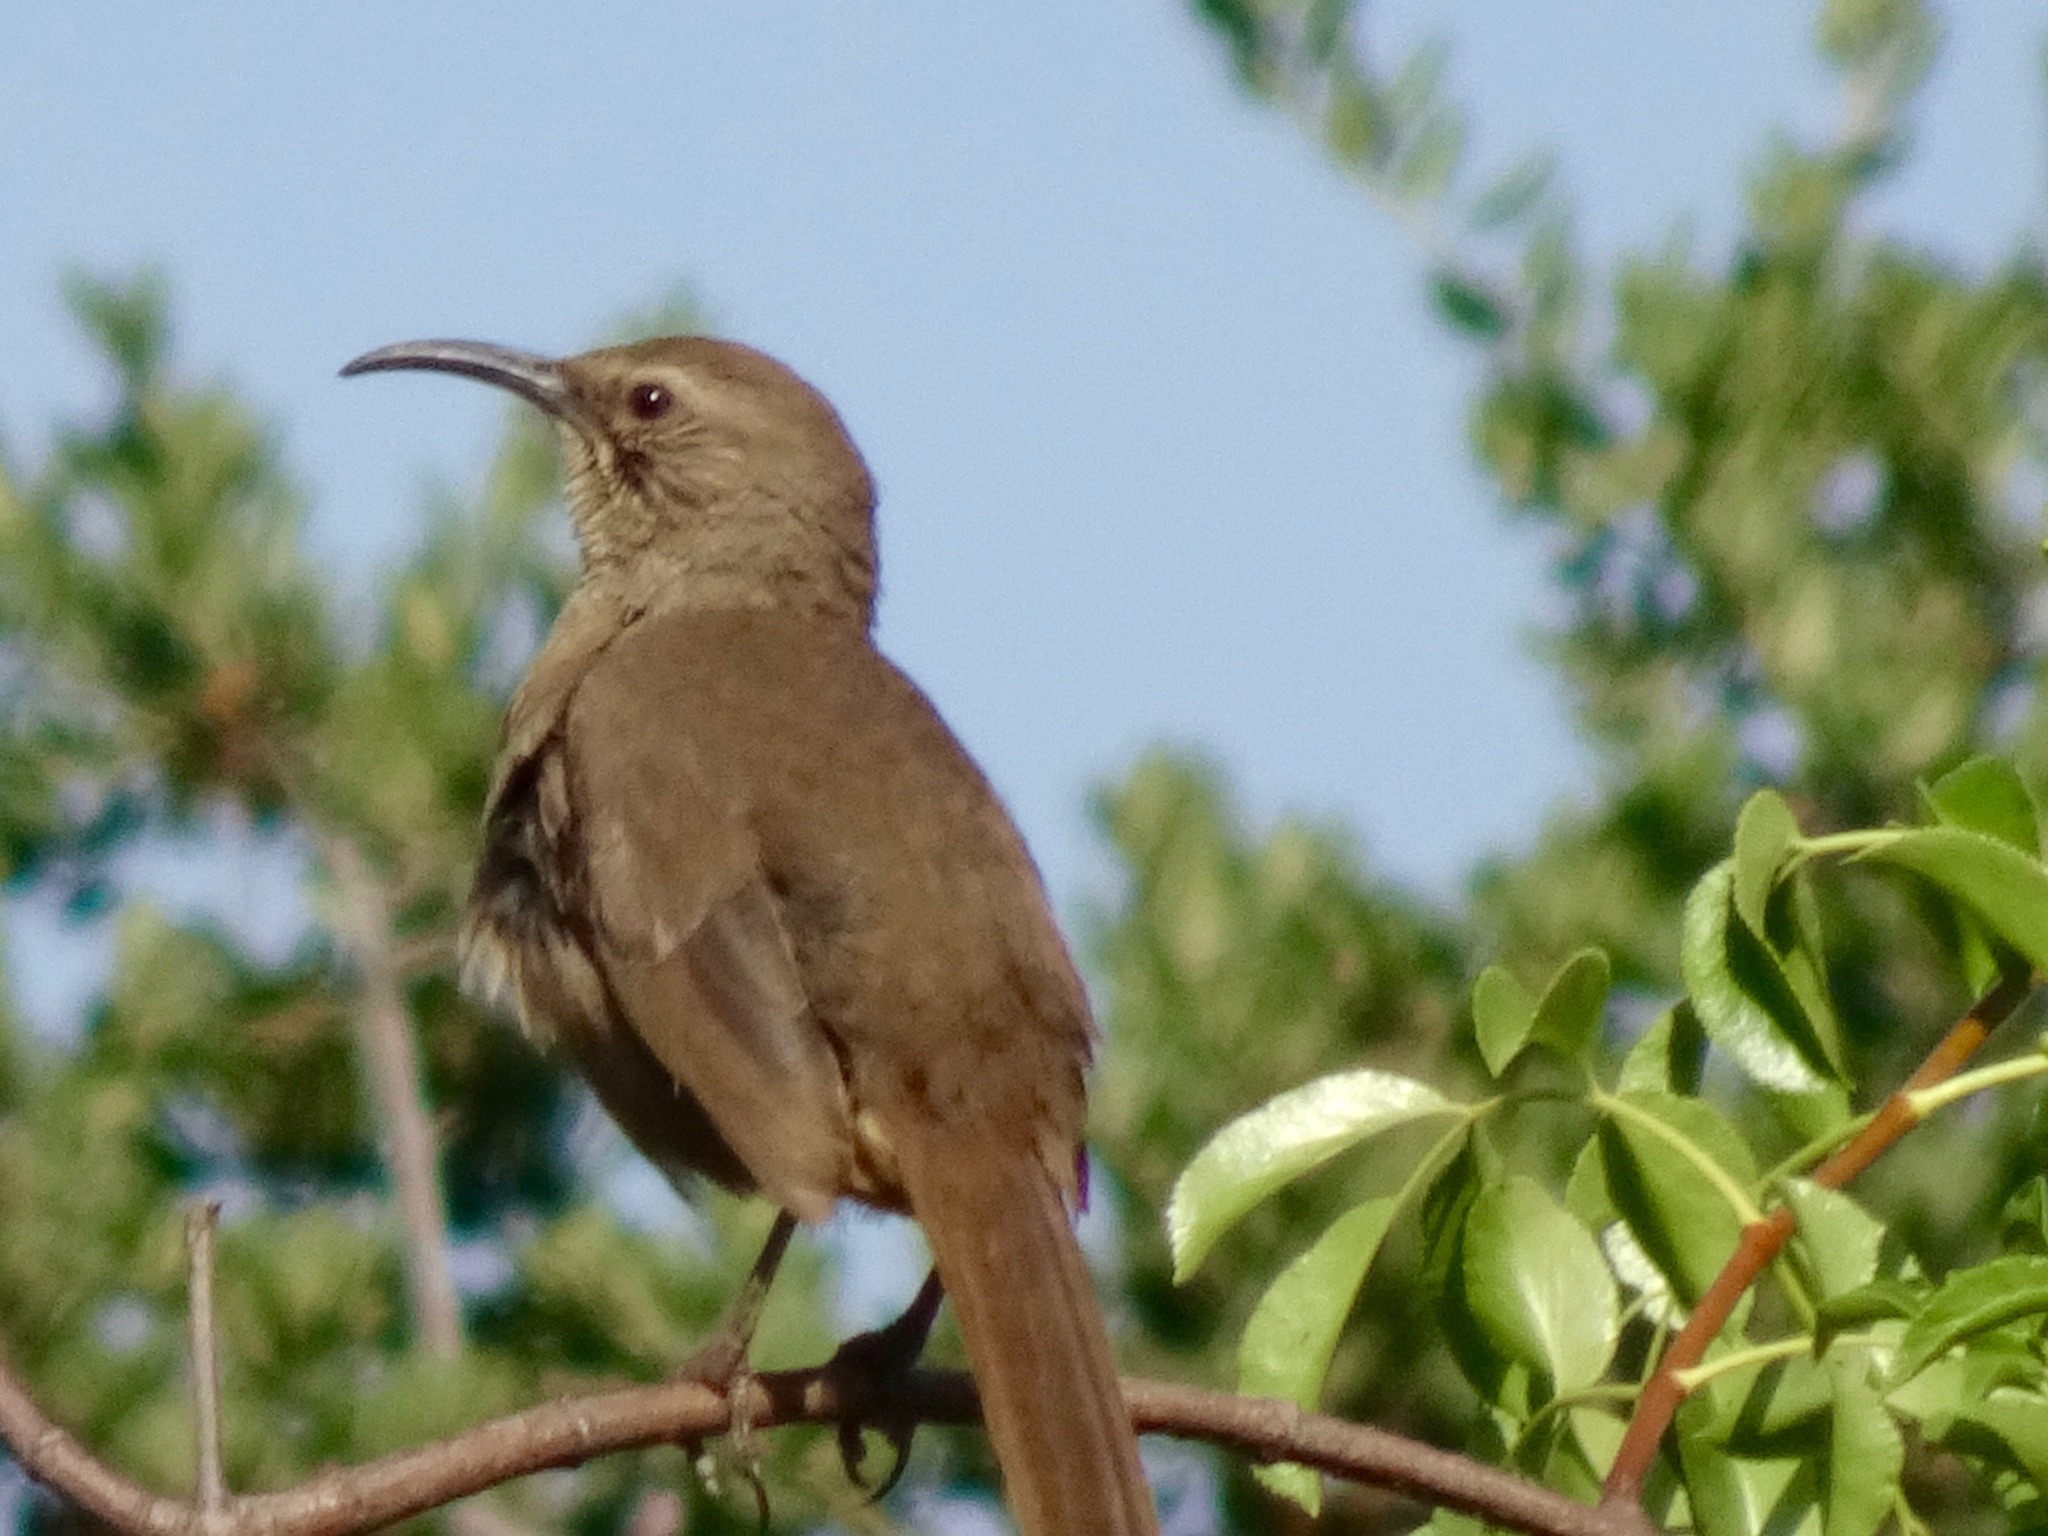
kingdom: Animalia
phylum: Chordata
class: Aves
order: Passeriformes
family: Mimidae
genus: Toxostoma
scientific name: Toxostoma redivivum
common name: California thrasher
